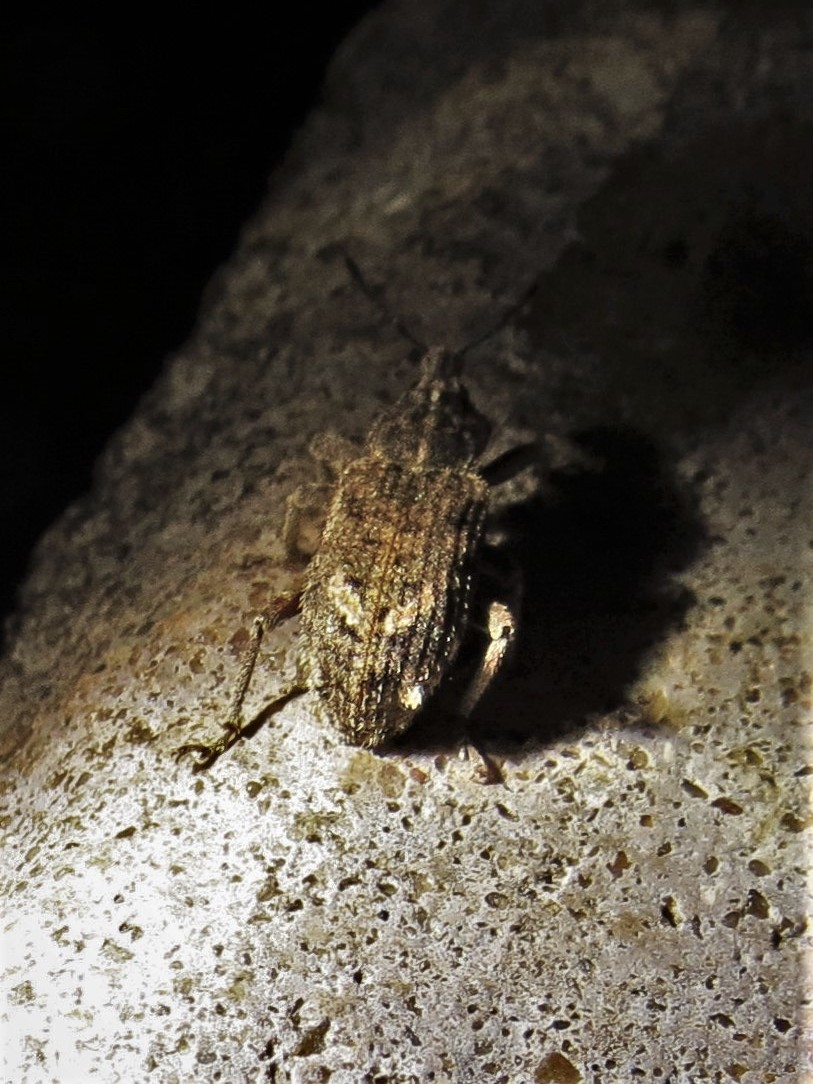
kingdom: Animalia
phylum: Arthropoda
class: Insecta
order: Coleoptera
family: Curculionidae
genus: Listroderes
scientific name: Listroderes difficilis
